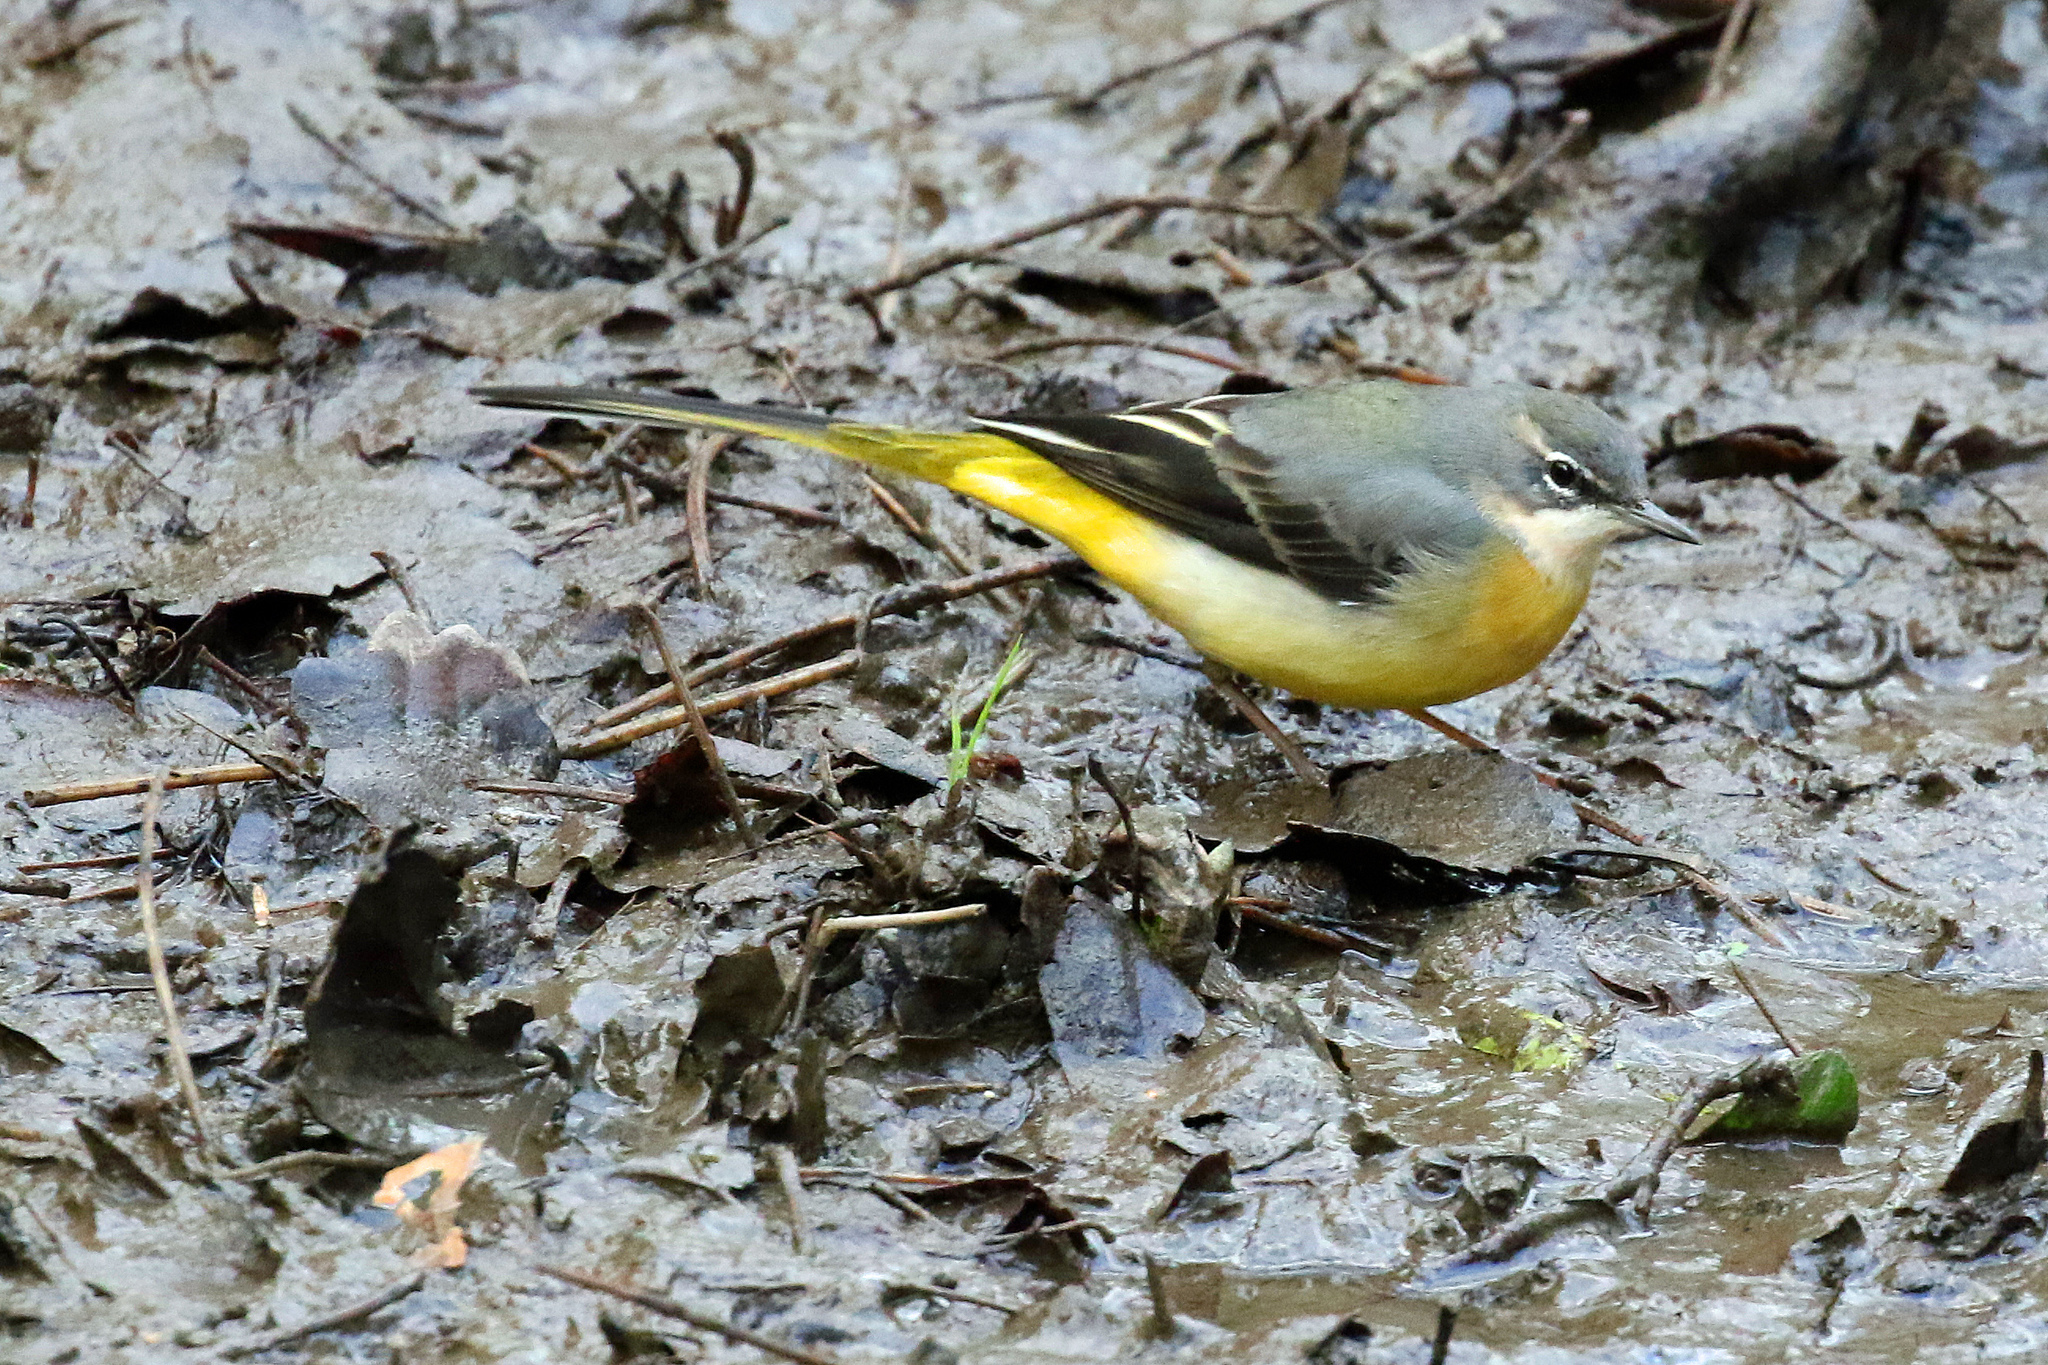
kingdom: Animalia
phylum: Chordata
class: Aves
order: Passeriformes
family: Motacillidae
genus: Motacilla
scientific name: Motacilla cinerea
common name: Grey wagtail
